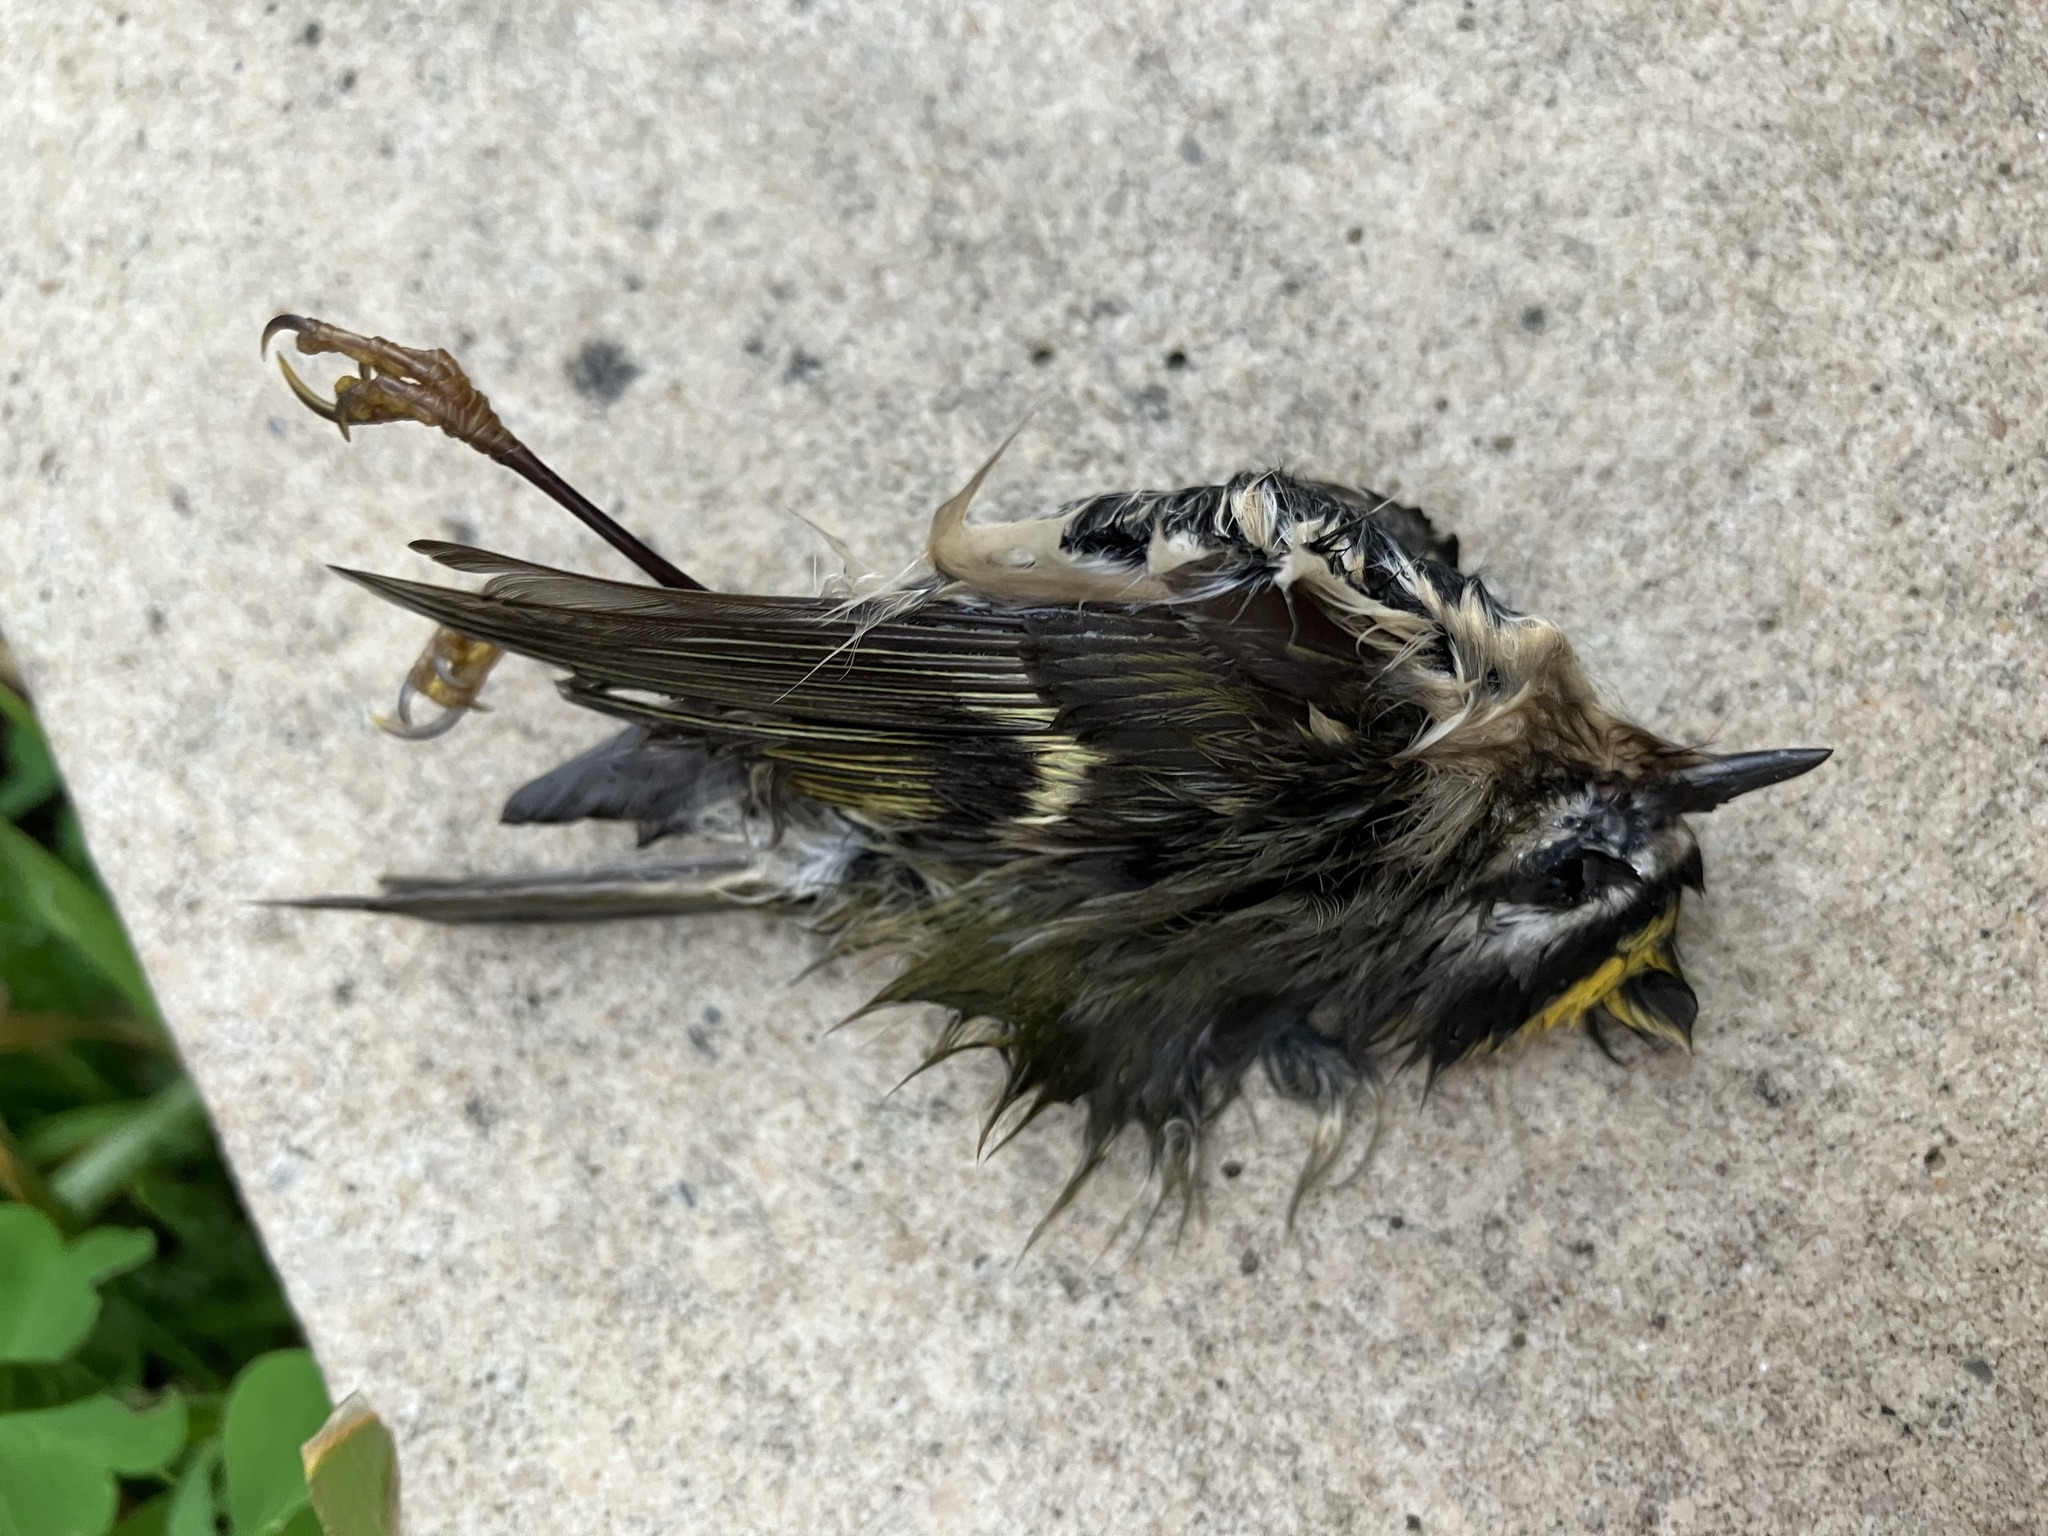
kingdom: Animalia
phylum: Chordata
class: Aves
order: Passeriformes
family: Regulidae
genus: Regulus
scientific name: Regulus satrapa
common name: Golden-crowned kinglet
